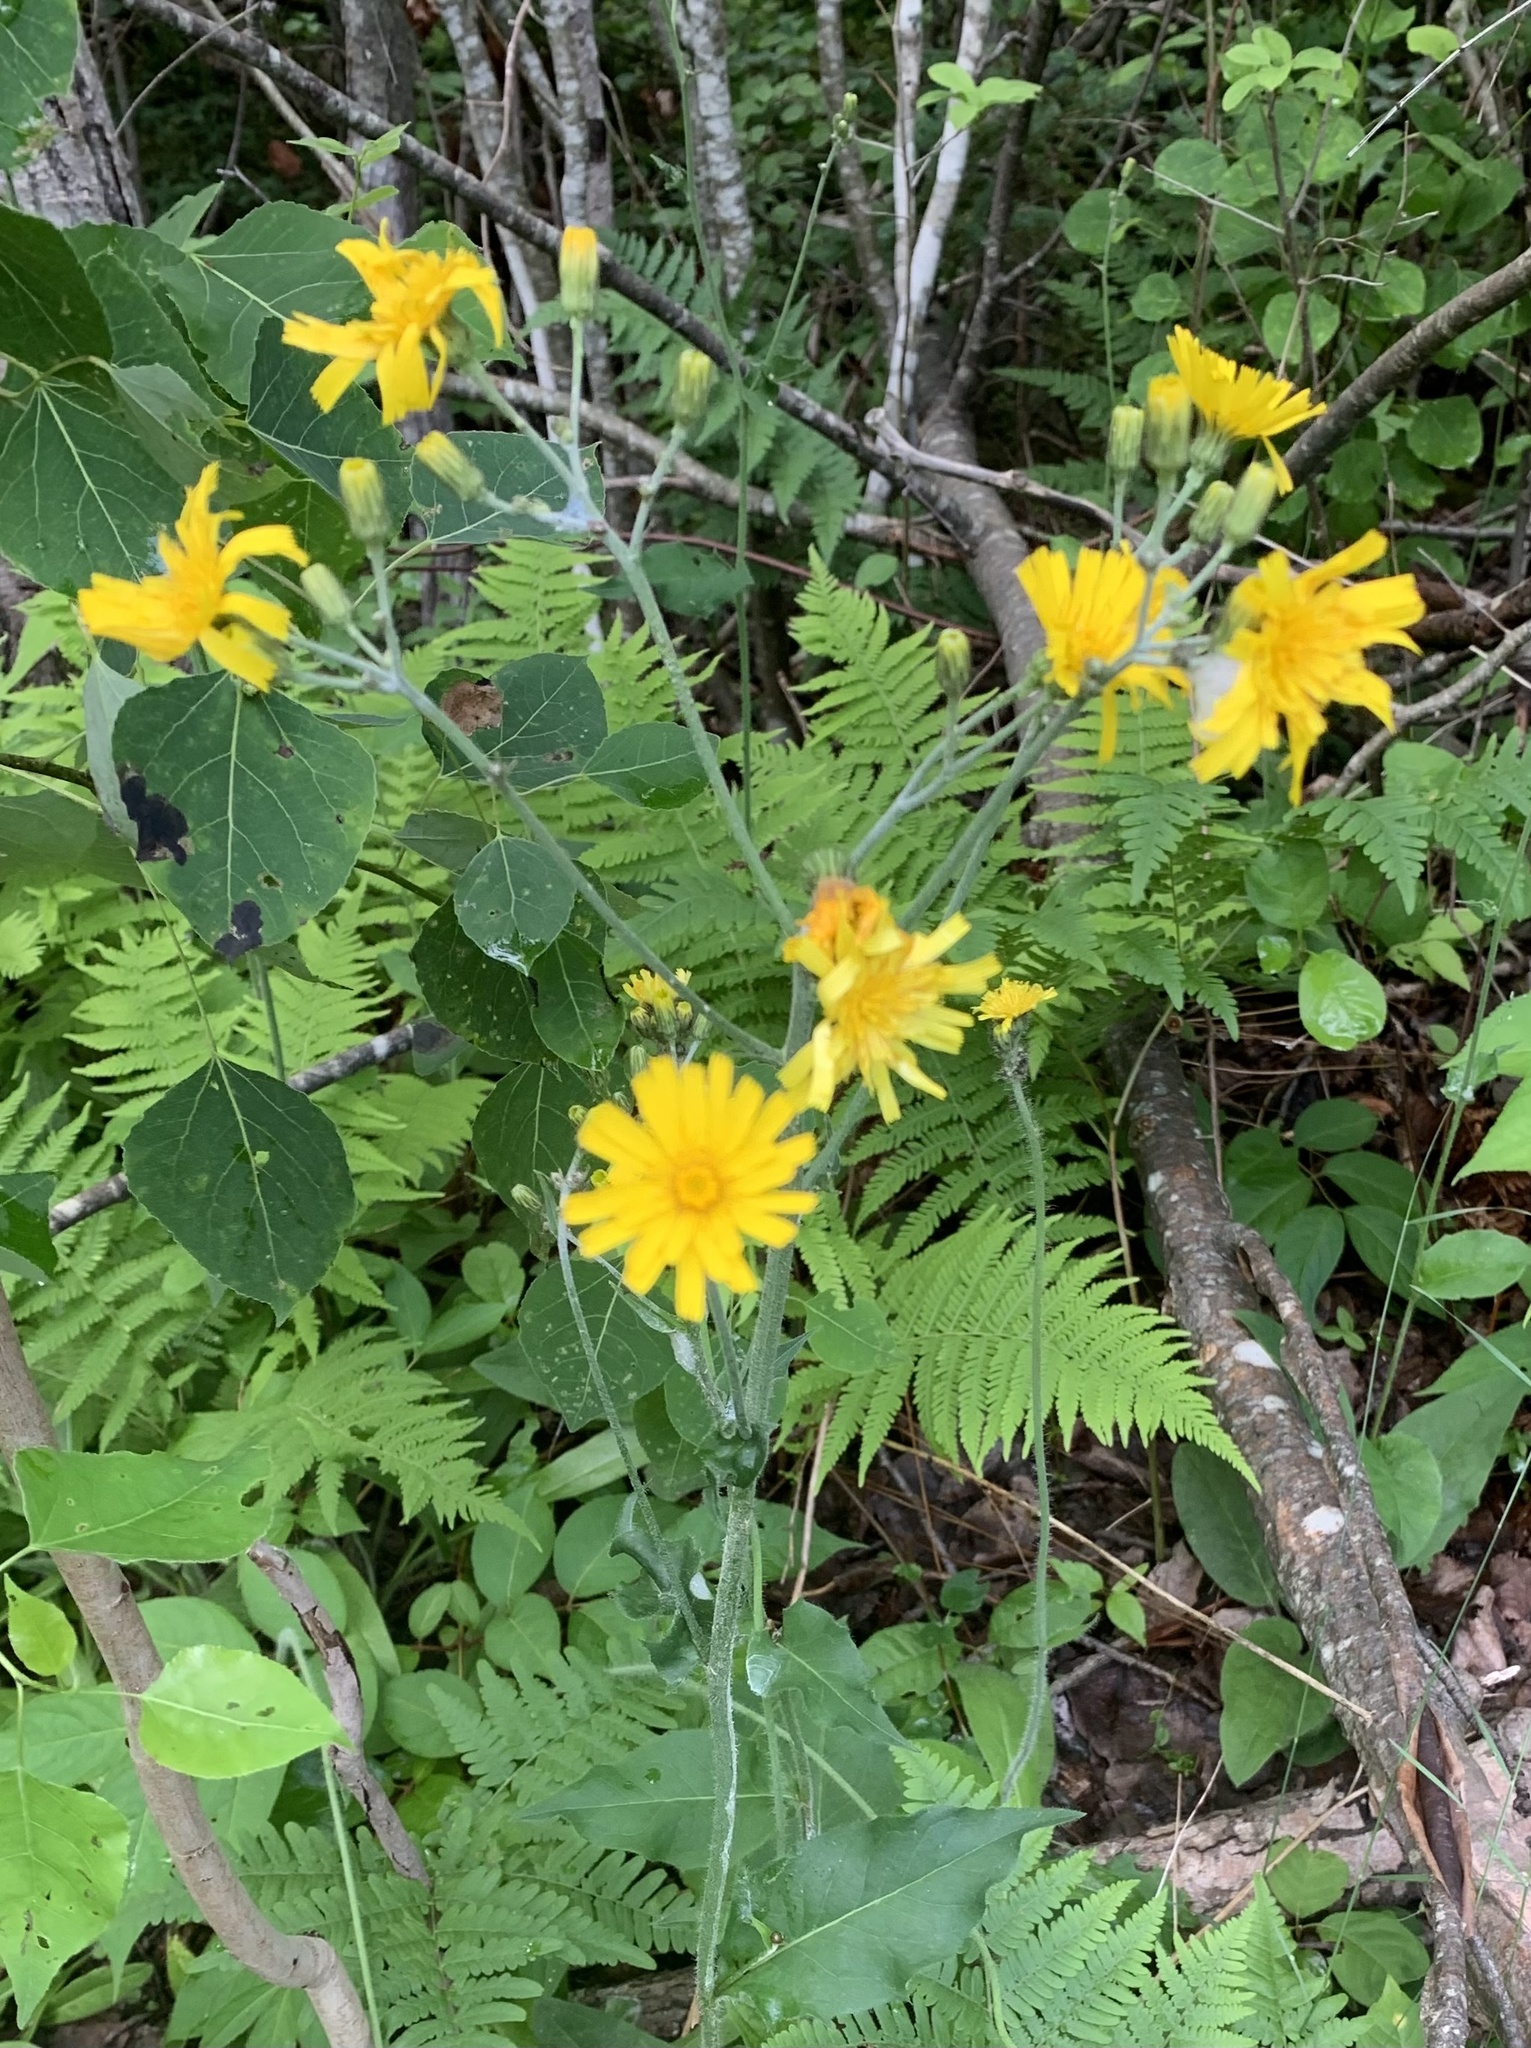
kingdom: Plantae
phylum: Tracheophyta
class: Magnoliopsida
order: Asterales
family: Asteraceae
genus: Hieracium
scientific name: Hieracium lachenalii
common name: Common hawkweed
